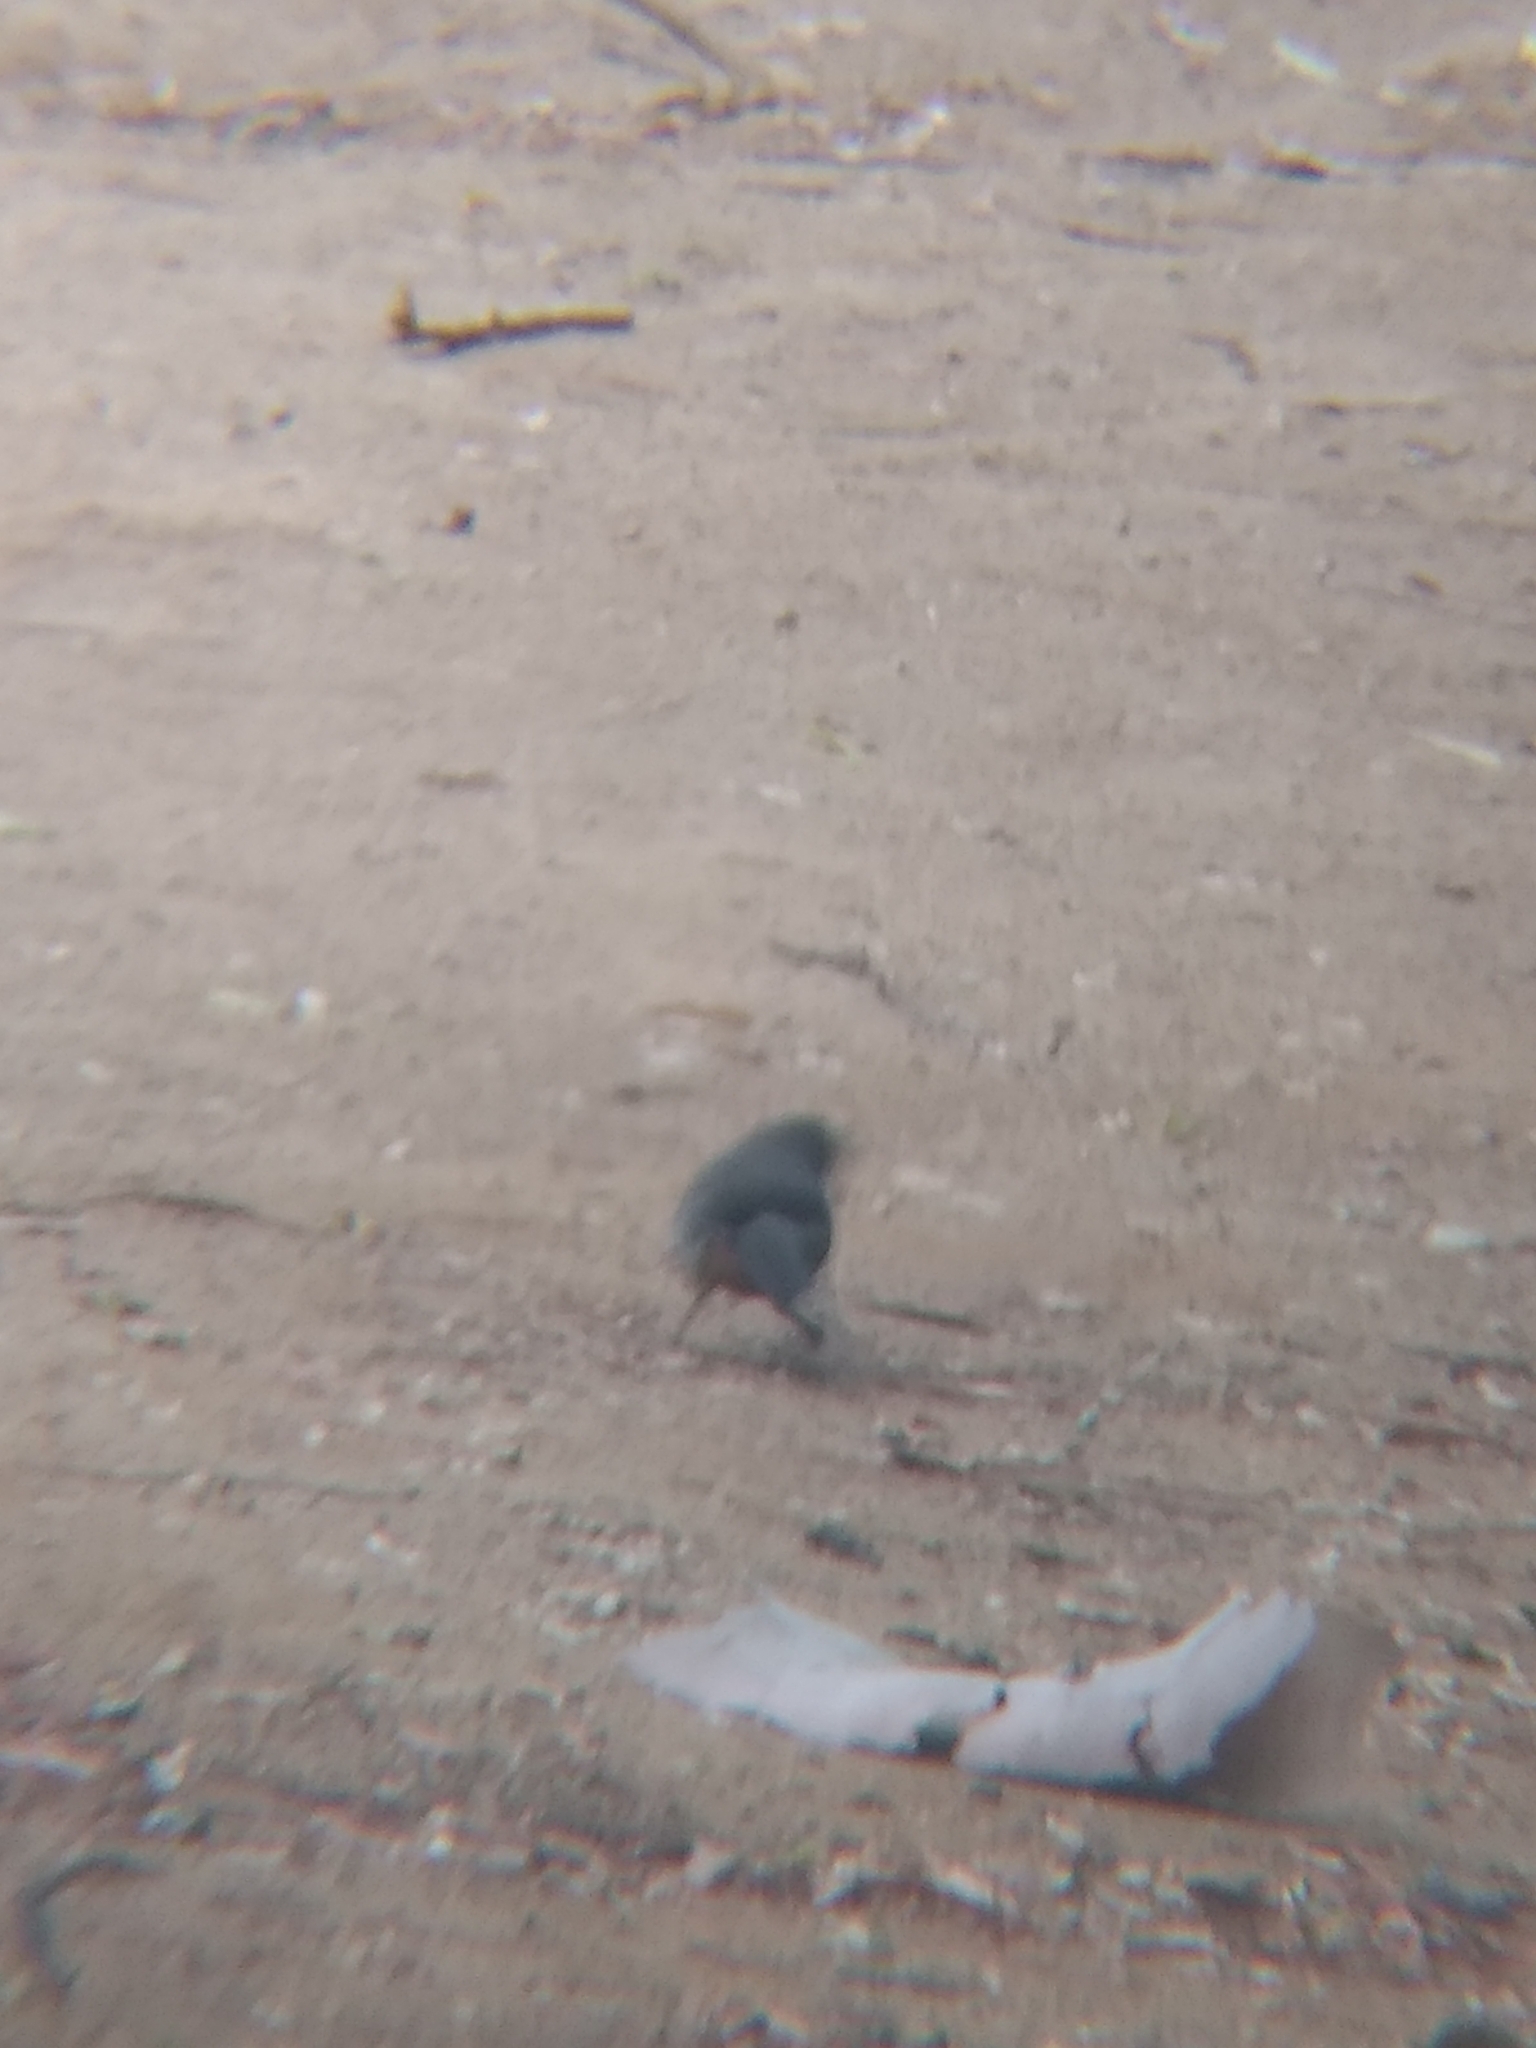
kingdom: Animalia
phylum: Chordata
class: Aves
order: Passeriformes
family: Passerellidae
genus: Melozone
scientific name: Melozone crissalis
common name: California towhee
